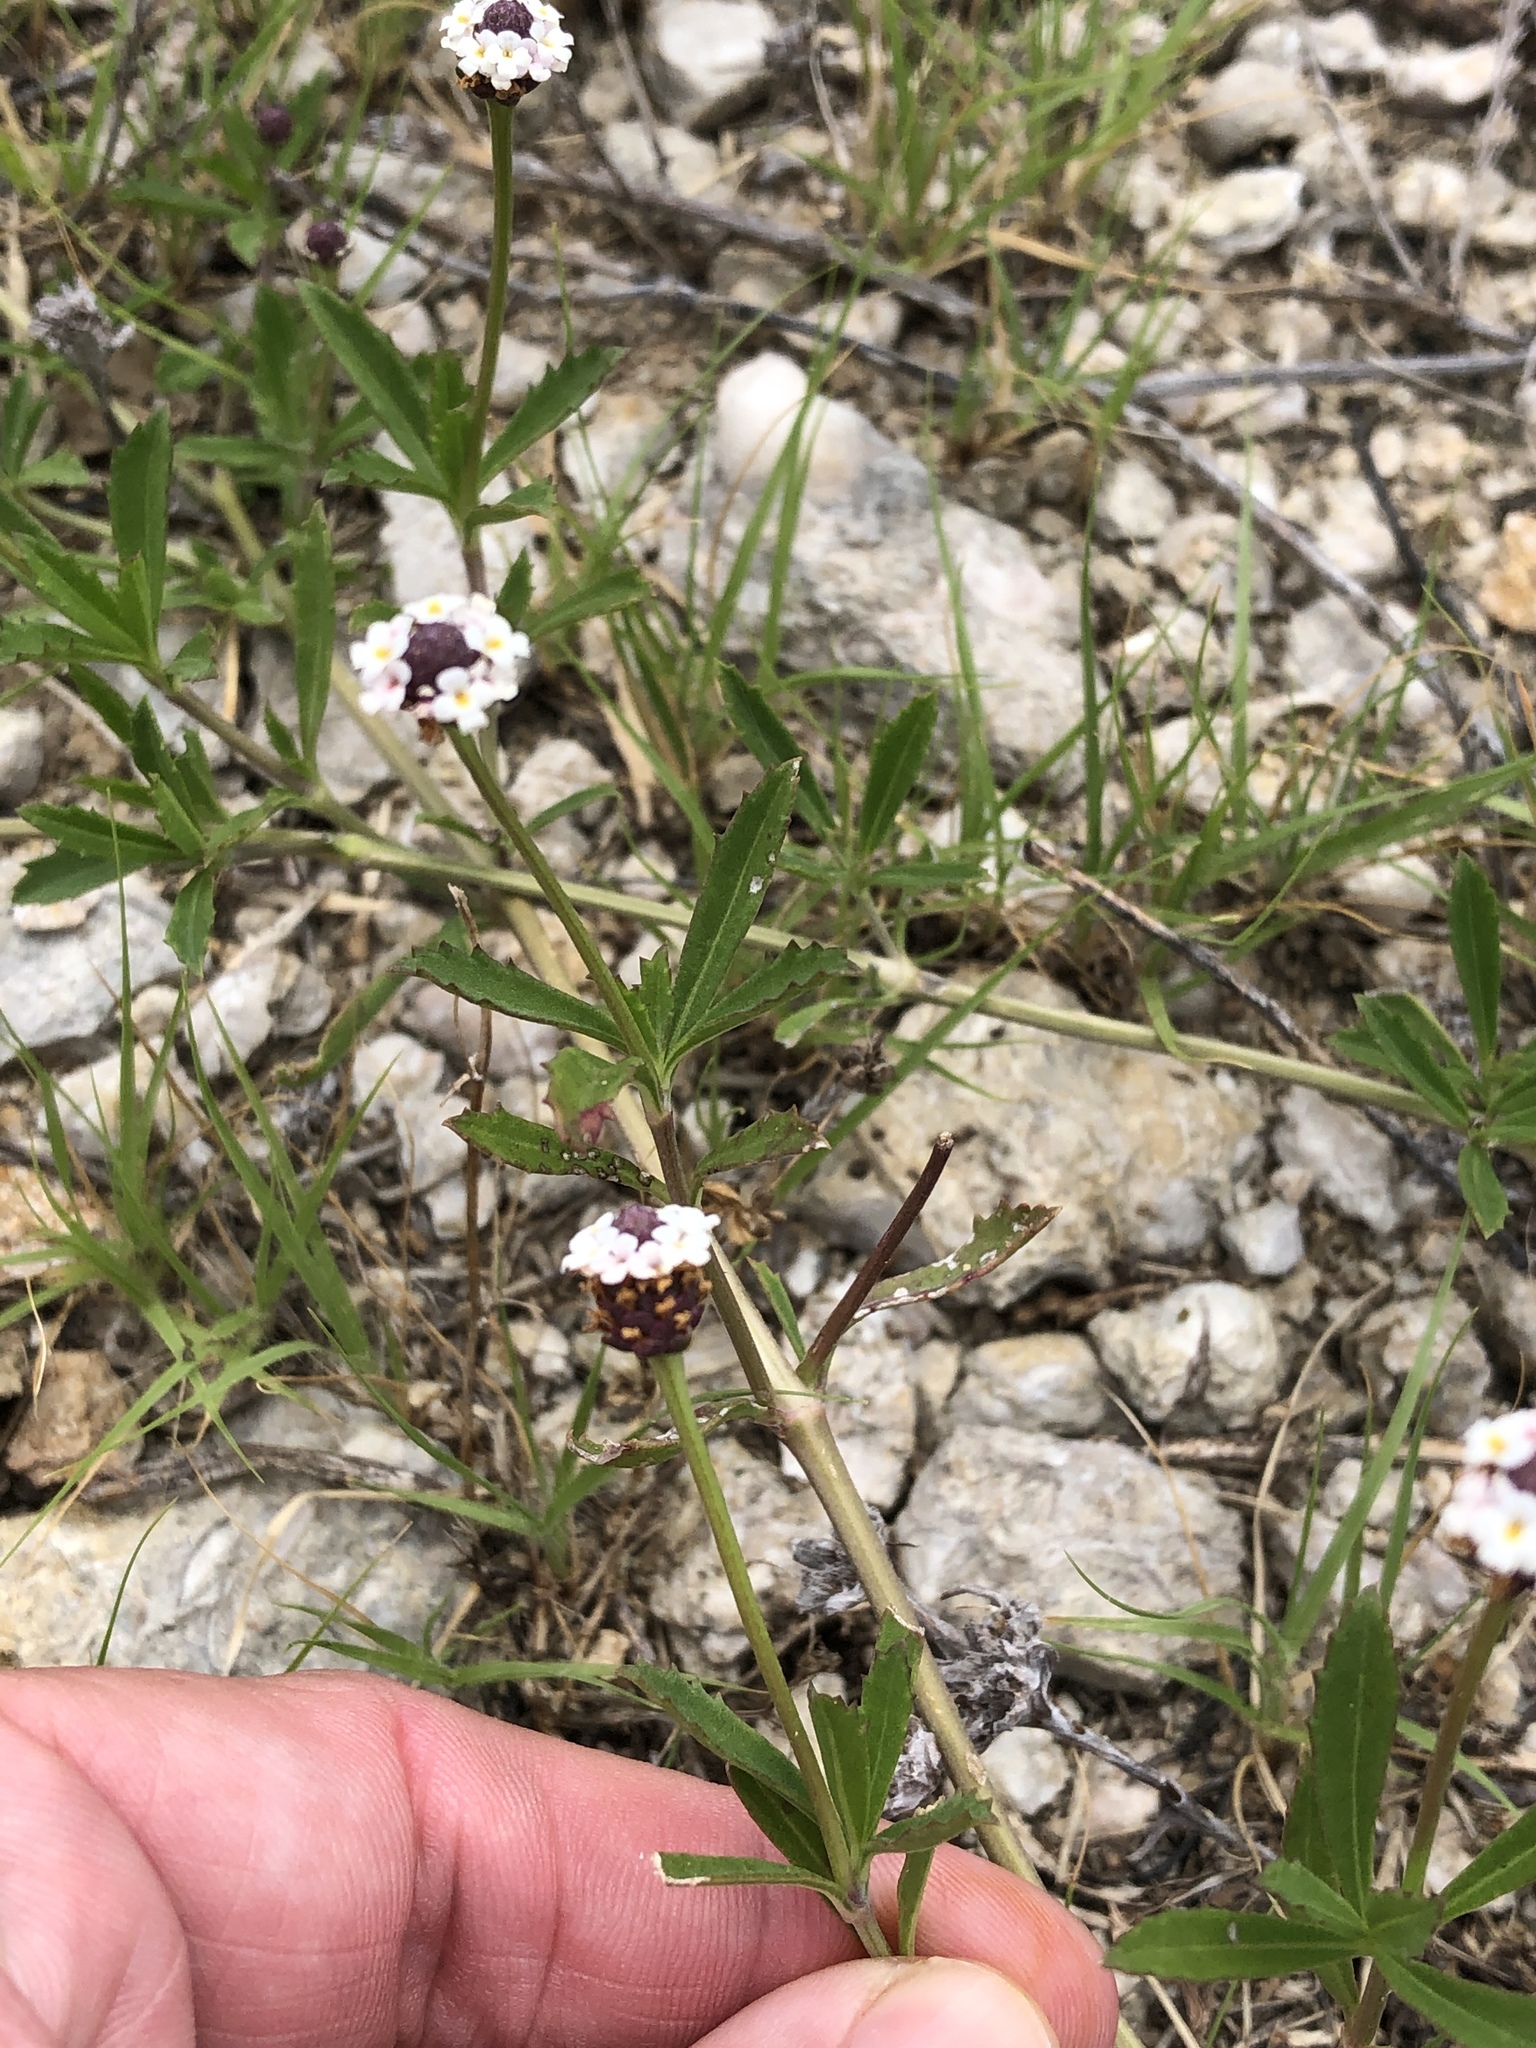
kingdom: Plantae
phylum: Tracheophyta
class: Magnoliopsida
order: Lamiales
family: Verbenaceae
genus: Phyla
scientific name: Phyla nodiflora
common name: Frogfruit
